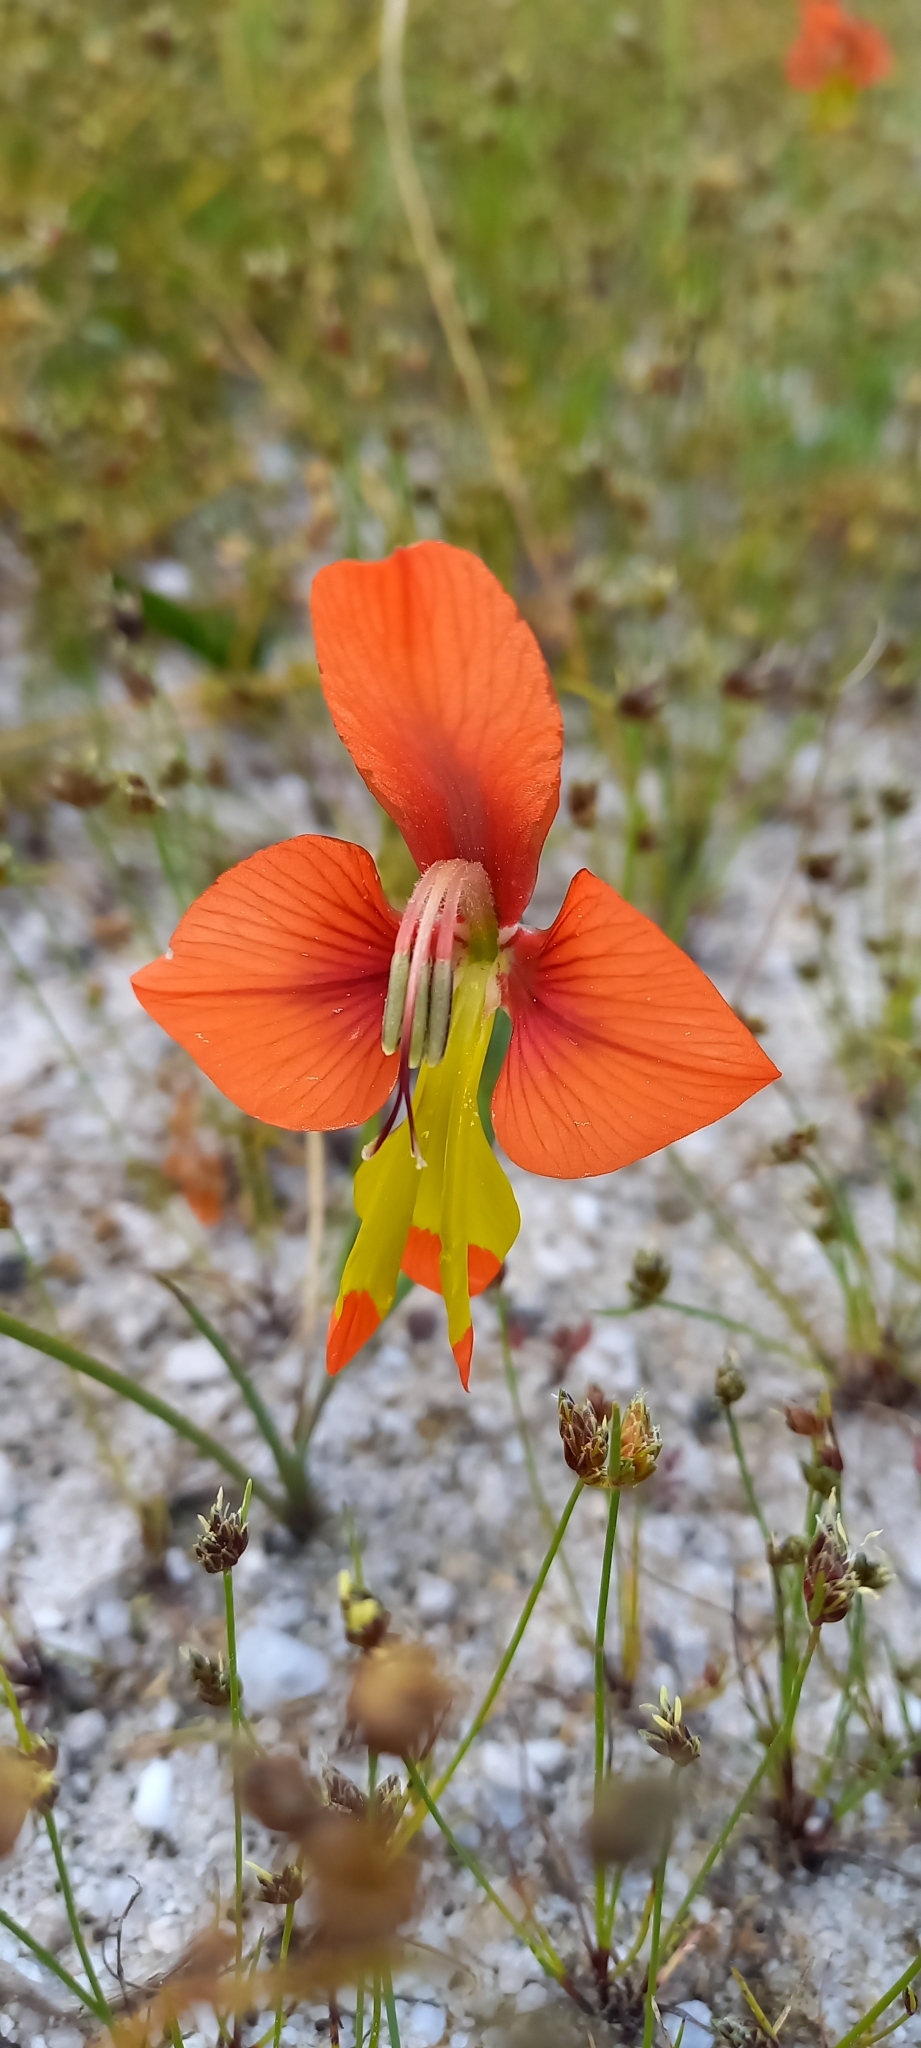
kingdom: Plantae
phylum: Tracheophyta
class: Liliopsida
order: Asparagales
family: Iridaceae
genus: Gladiolus
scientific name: Gladiolus alatus
